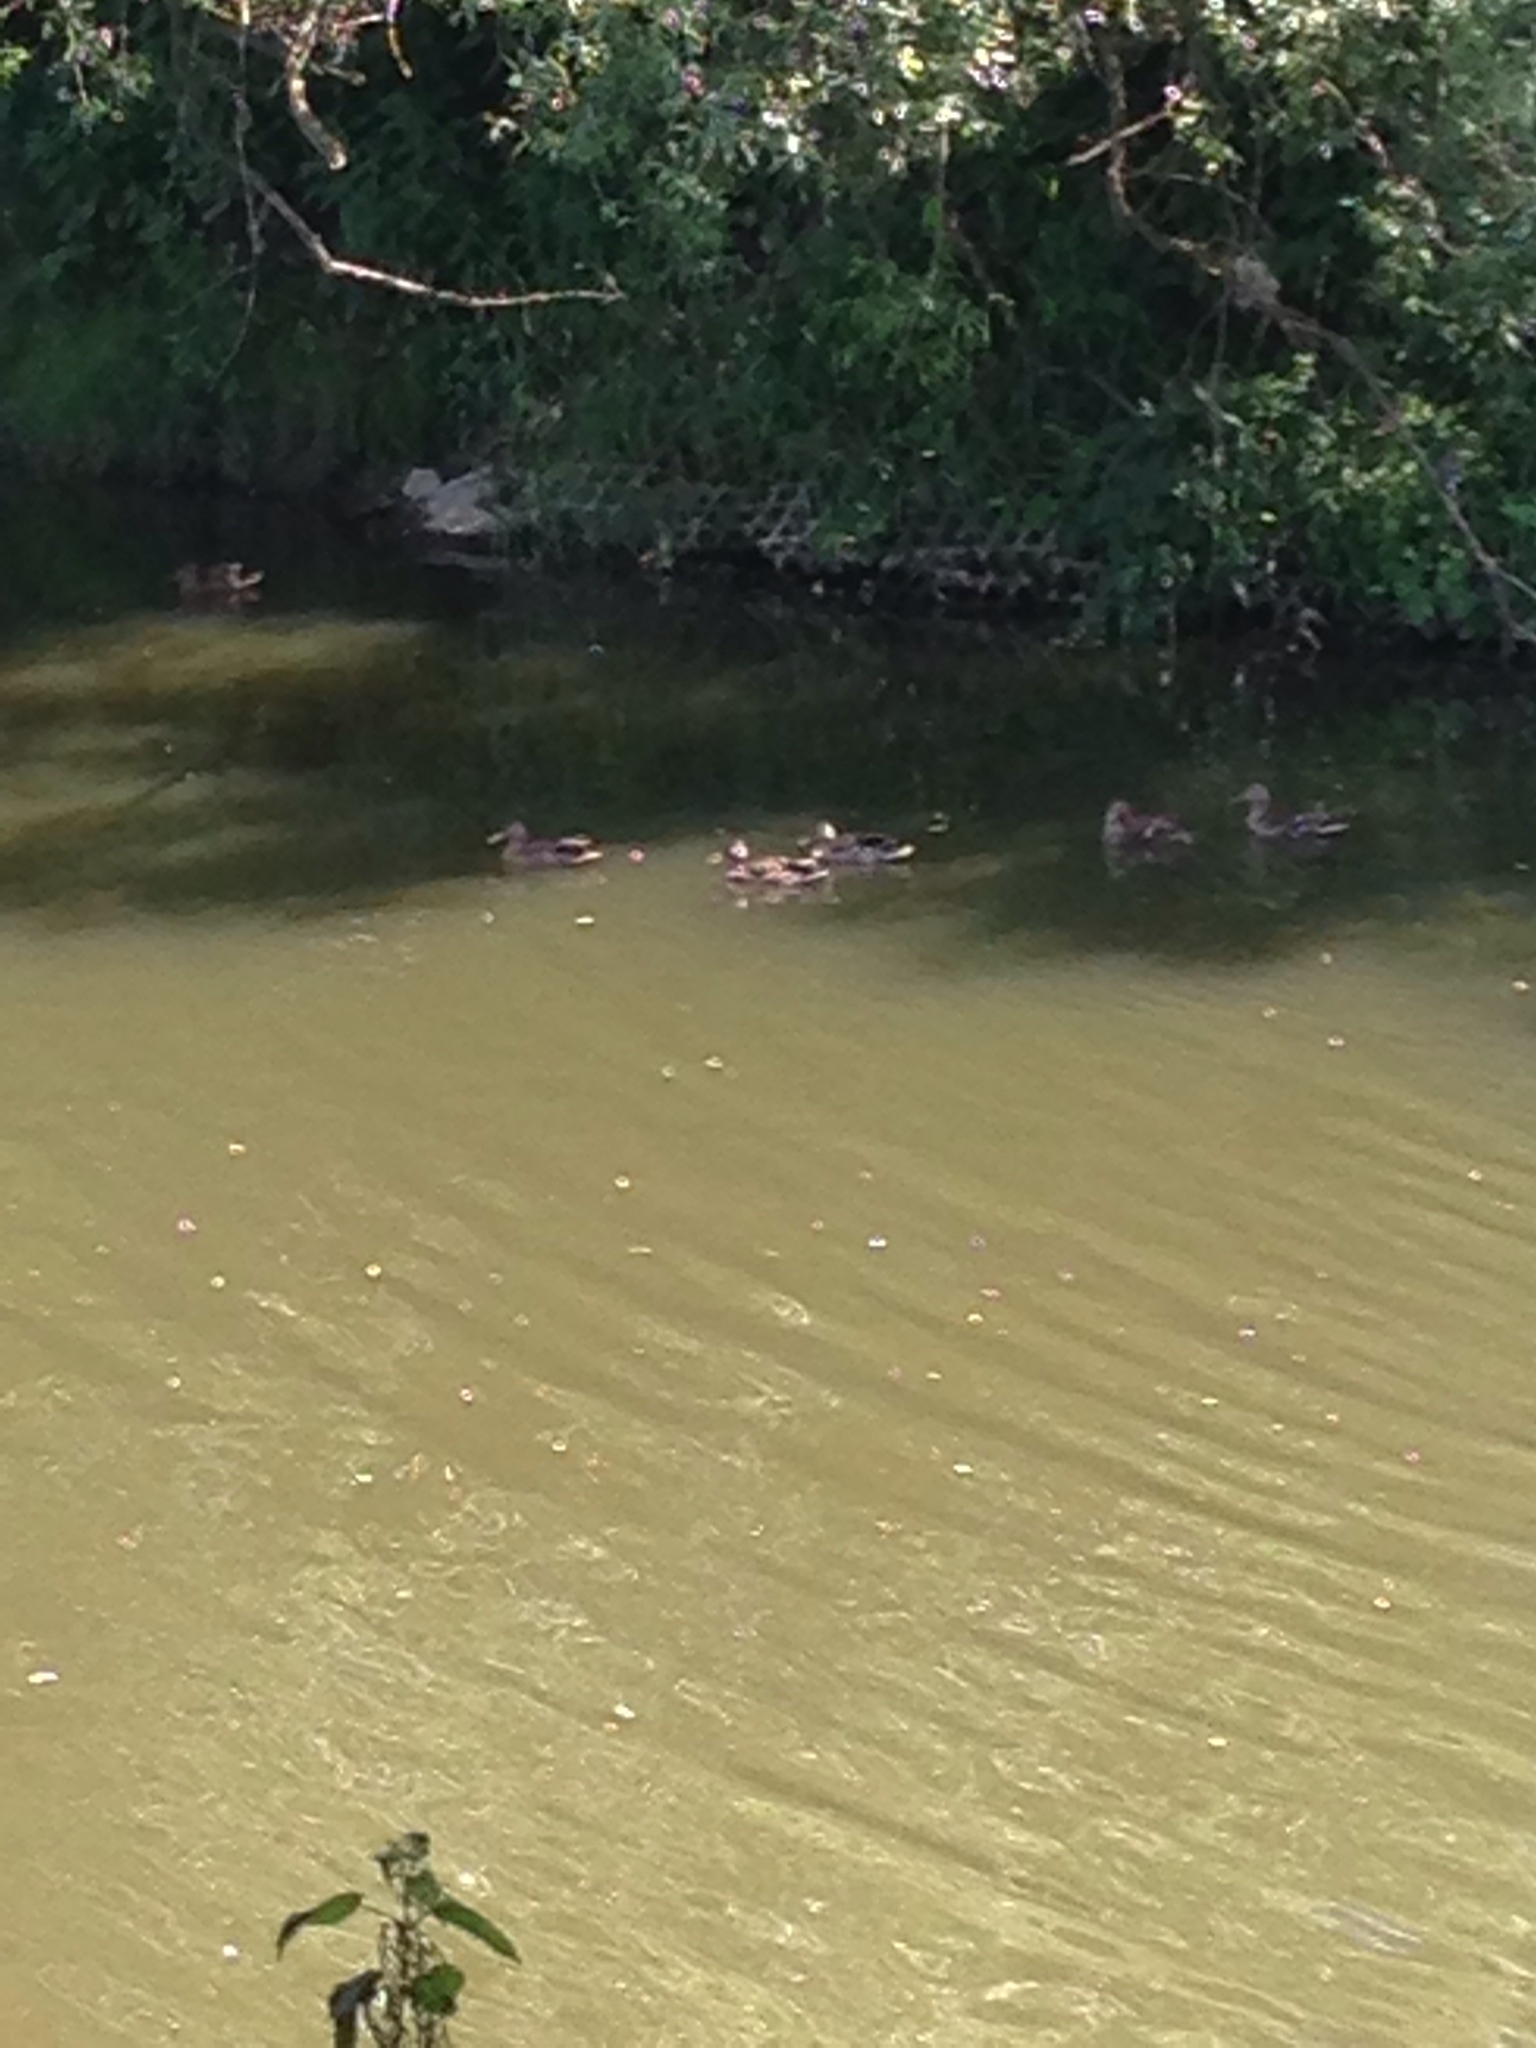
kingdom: Animalia
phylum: Chordata
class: Aves
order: Anseriformes
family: Anatidae
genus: Anas
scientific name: Anas platyrhynchos
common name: Mallard
